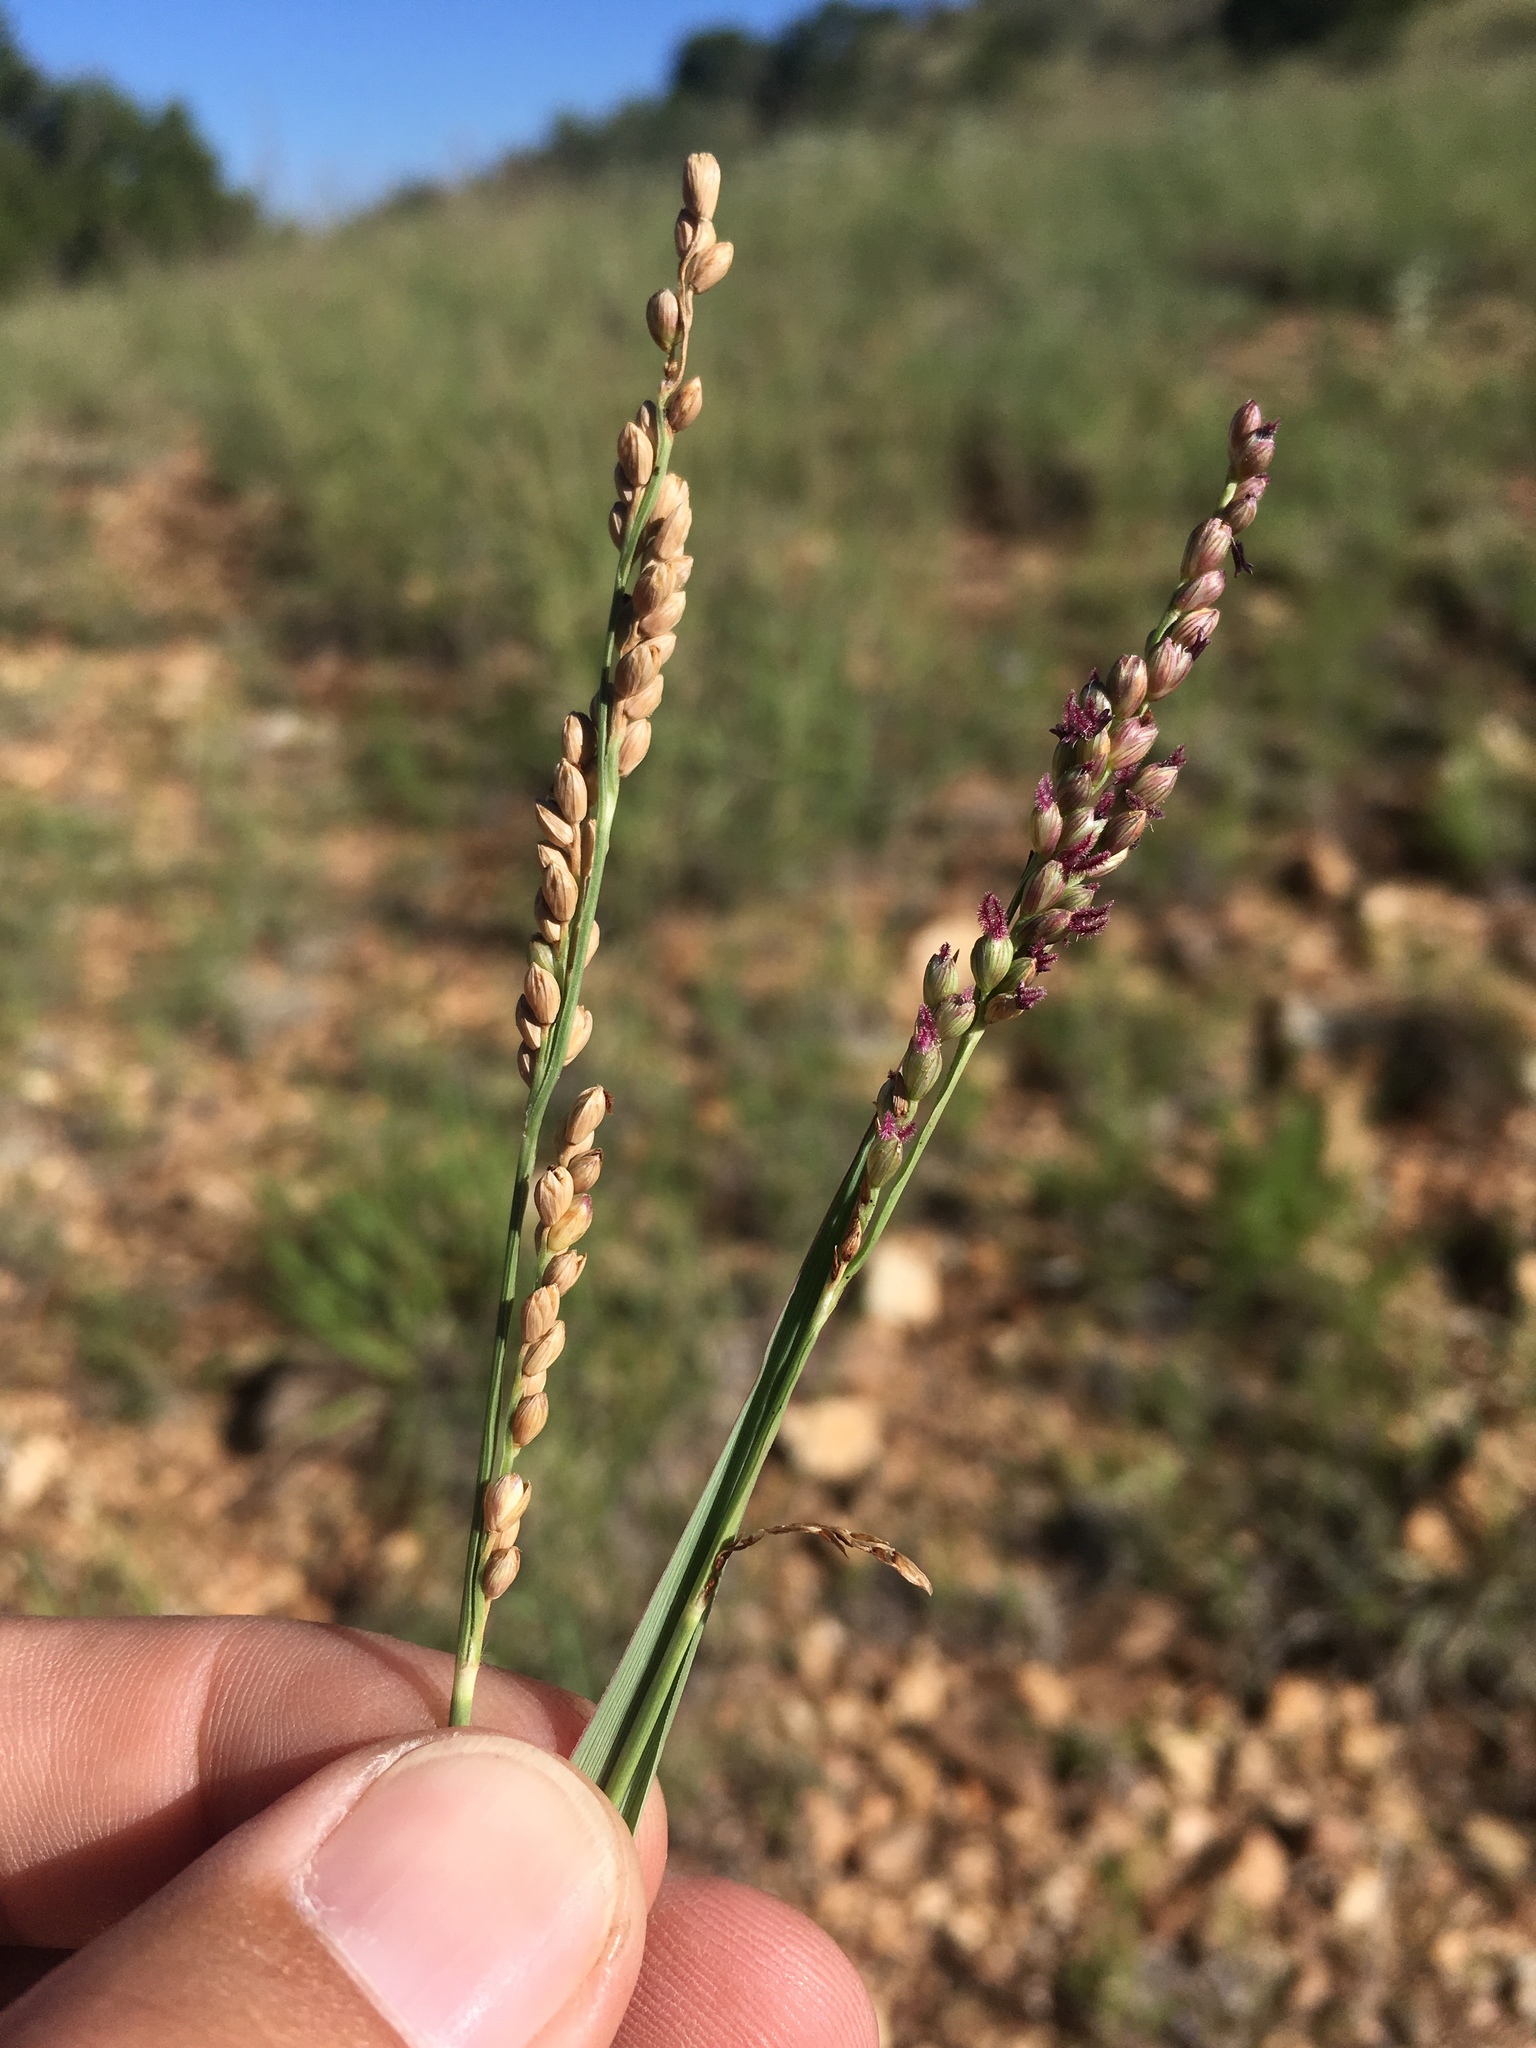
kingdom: Plantae
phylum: Tracheophyta
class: Liliopsida
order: Poales
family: Poaceae
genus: Hopia
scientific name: Hopia obtusa
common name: Vine-mesquite
